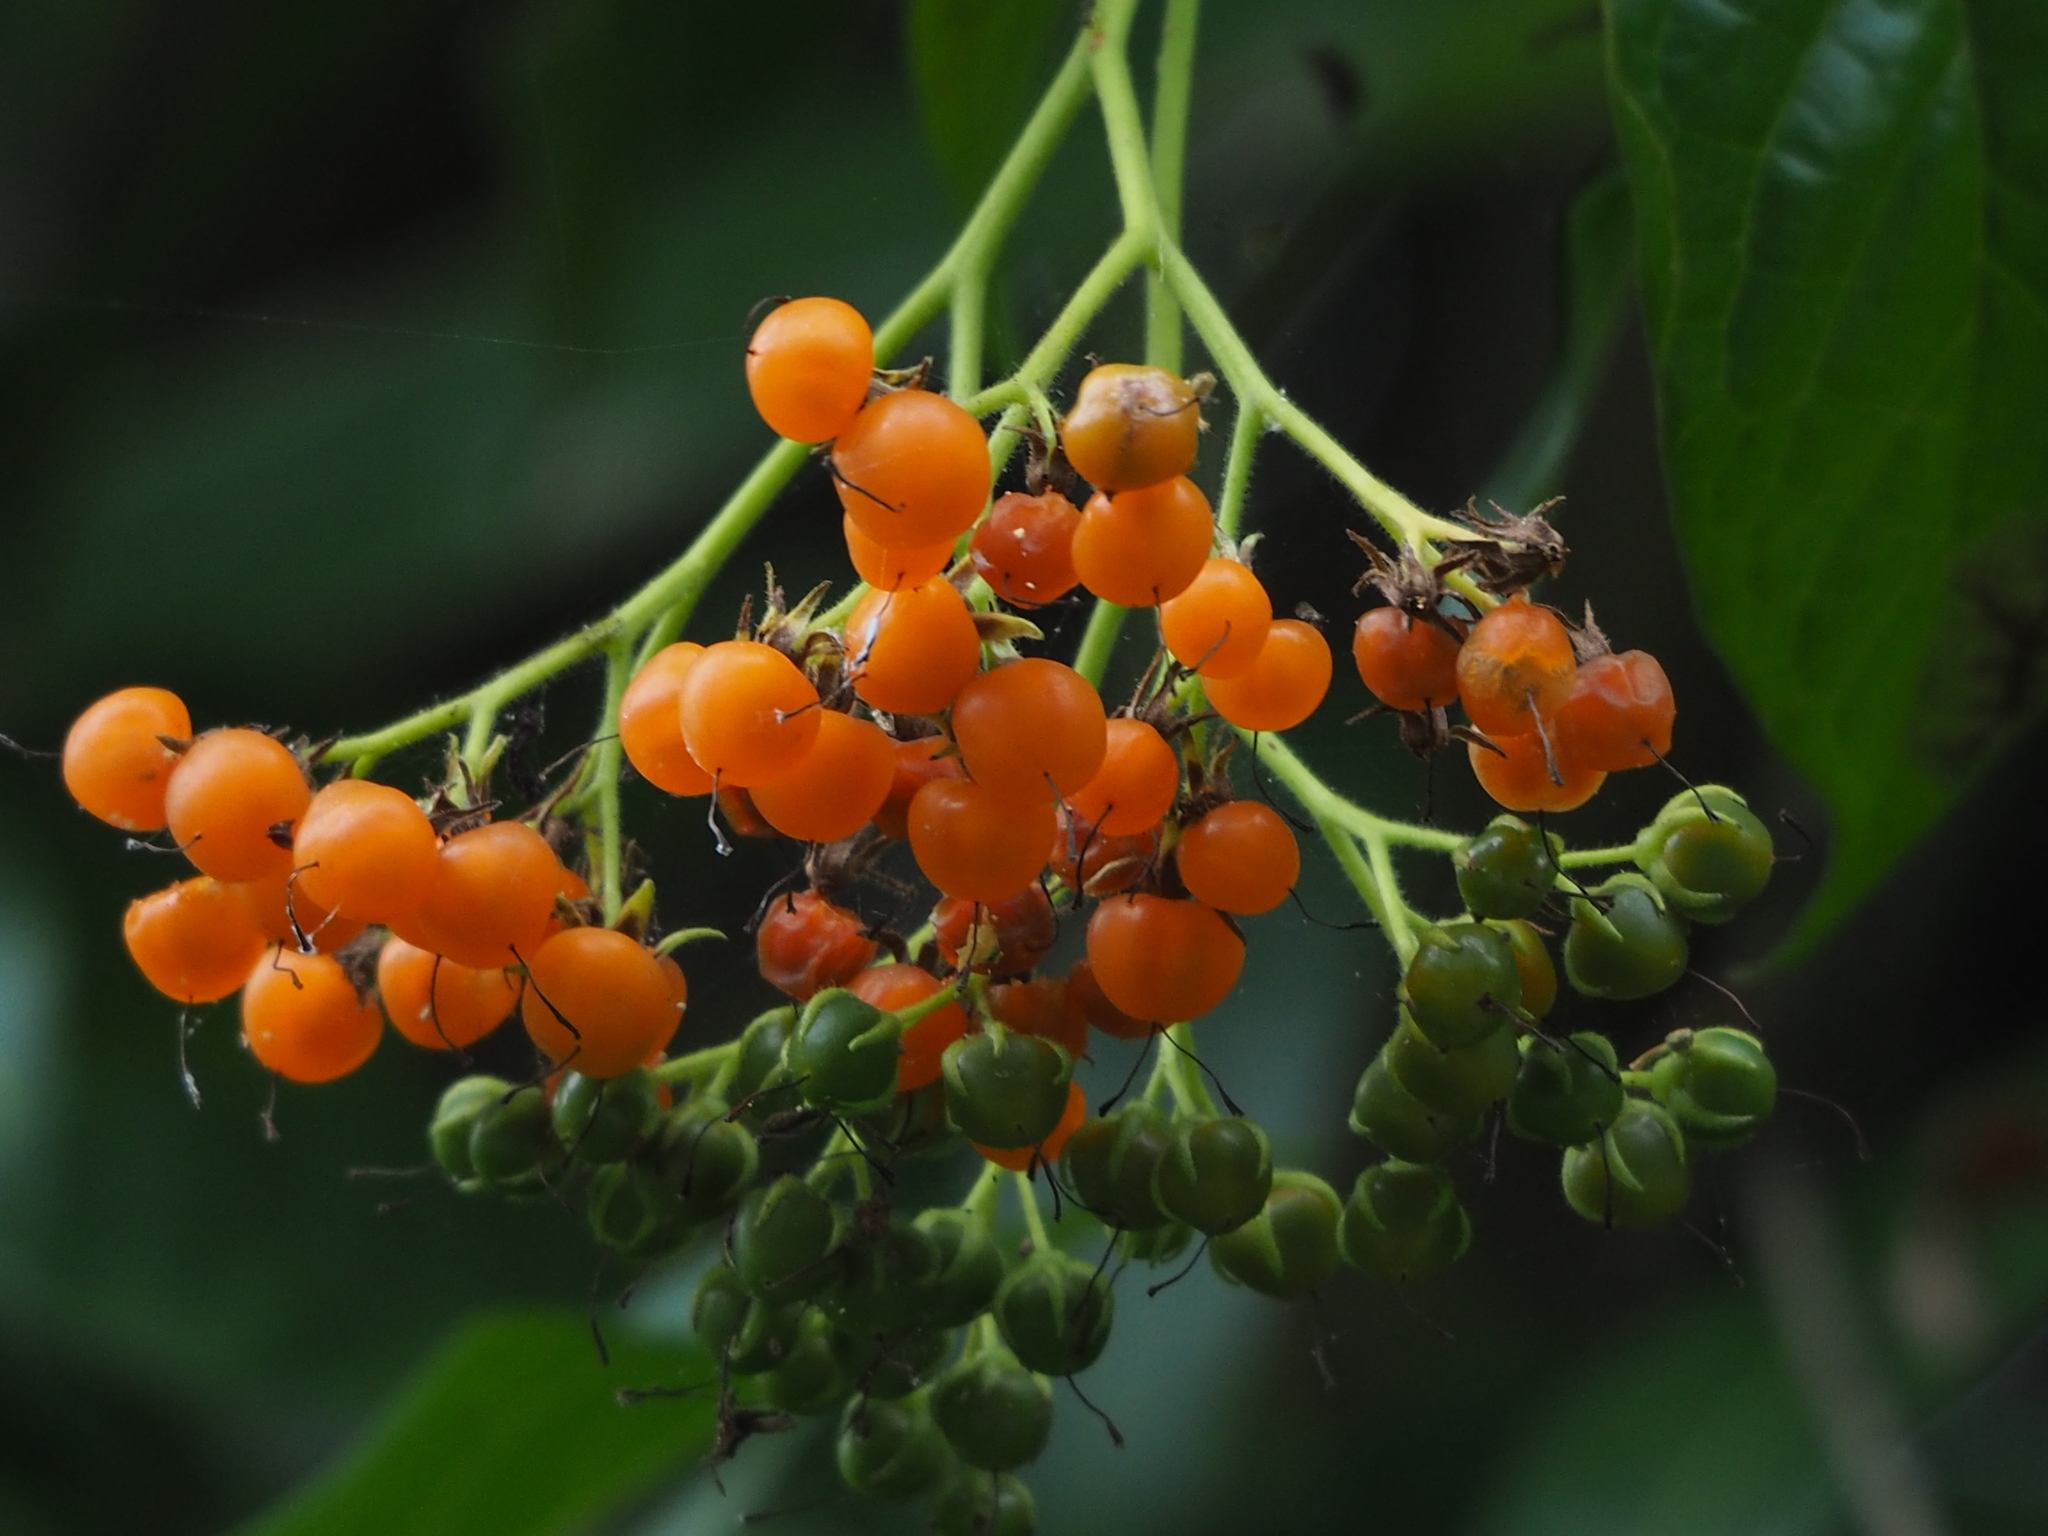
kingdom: Plantae
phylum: Tracheophyta
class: Magnoliopsida
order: Boraginales
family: Ehretiaceae
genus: Ehretia
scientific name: Ehretia resinosa
